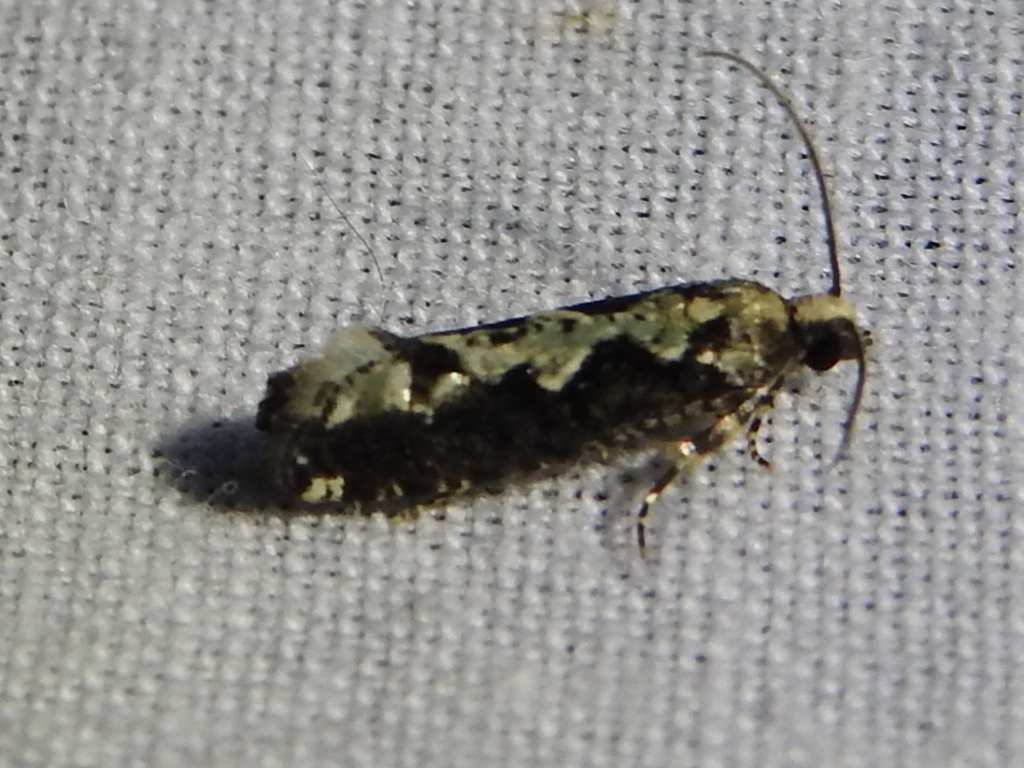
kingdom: Animalia
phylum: Arthropoda
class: Insecta
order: Lepidoptera
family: Tortricidae
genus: Chimoptesis
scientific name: Chimoptesis pennsylvaniana
